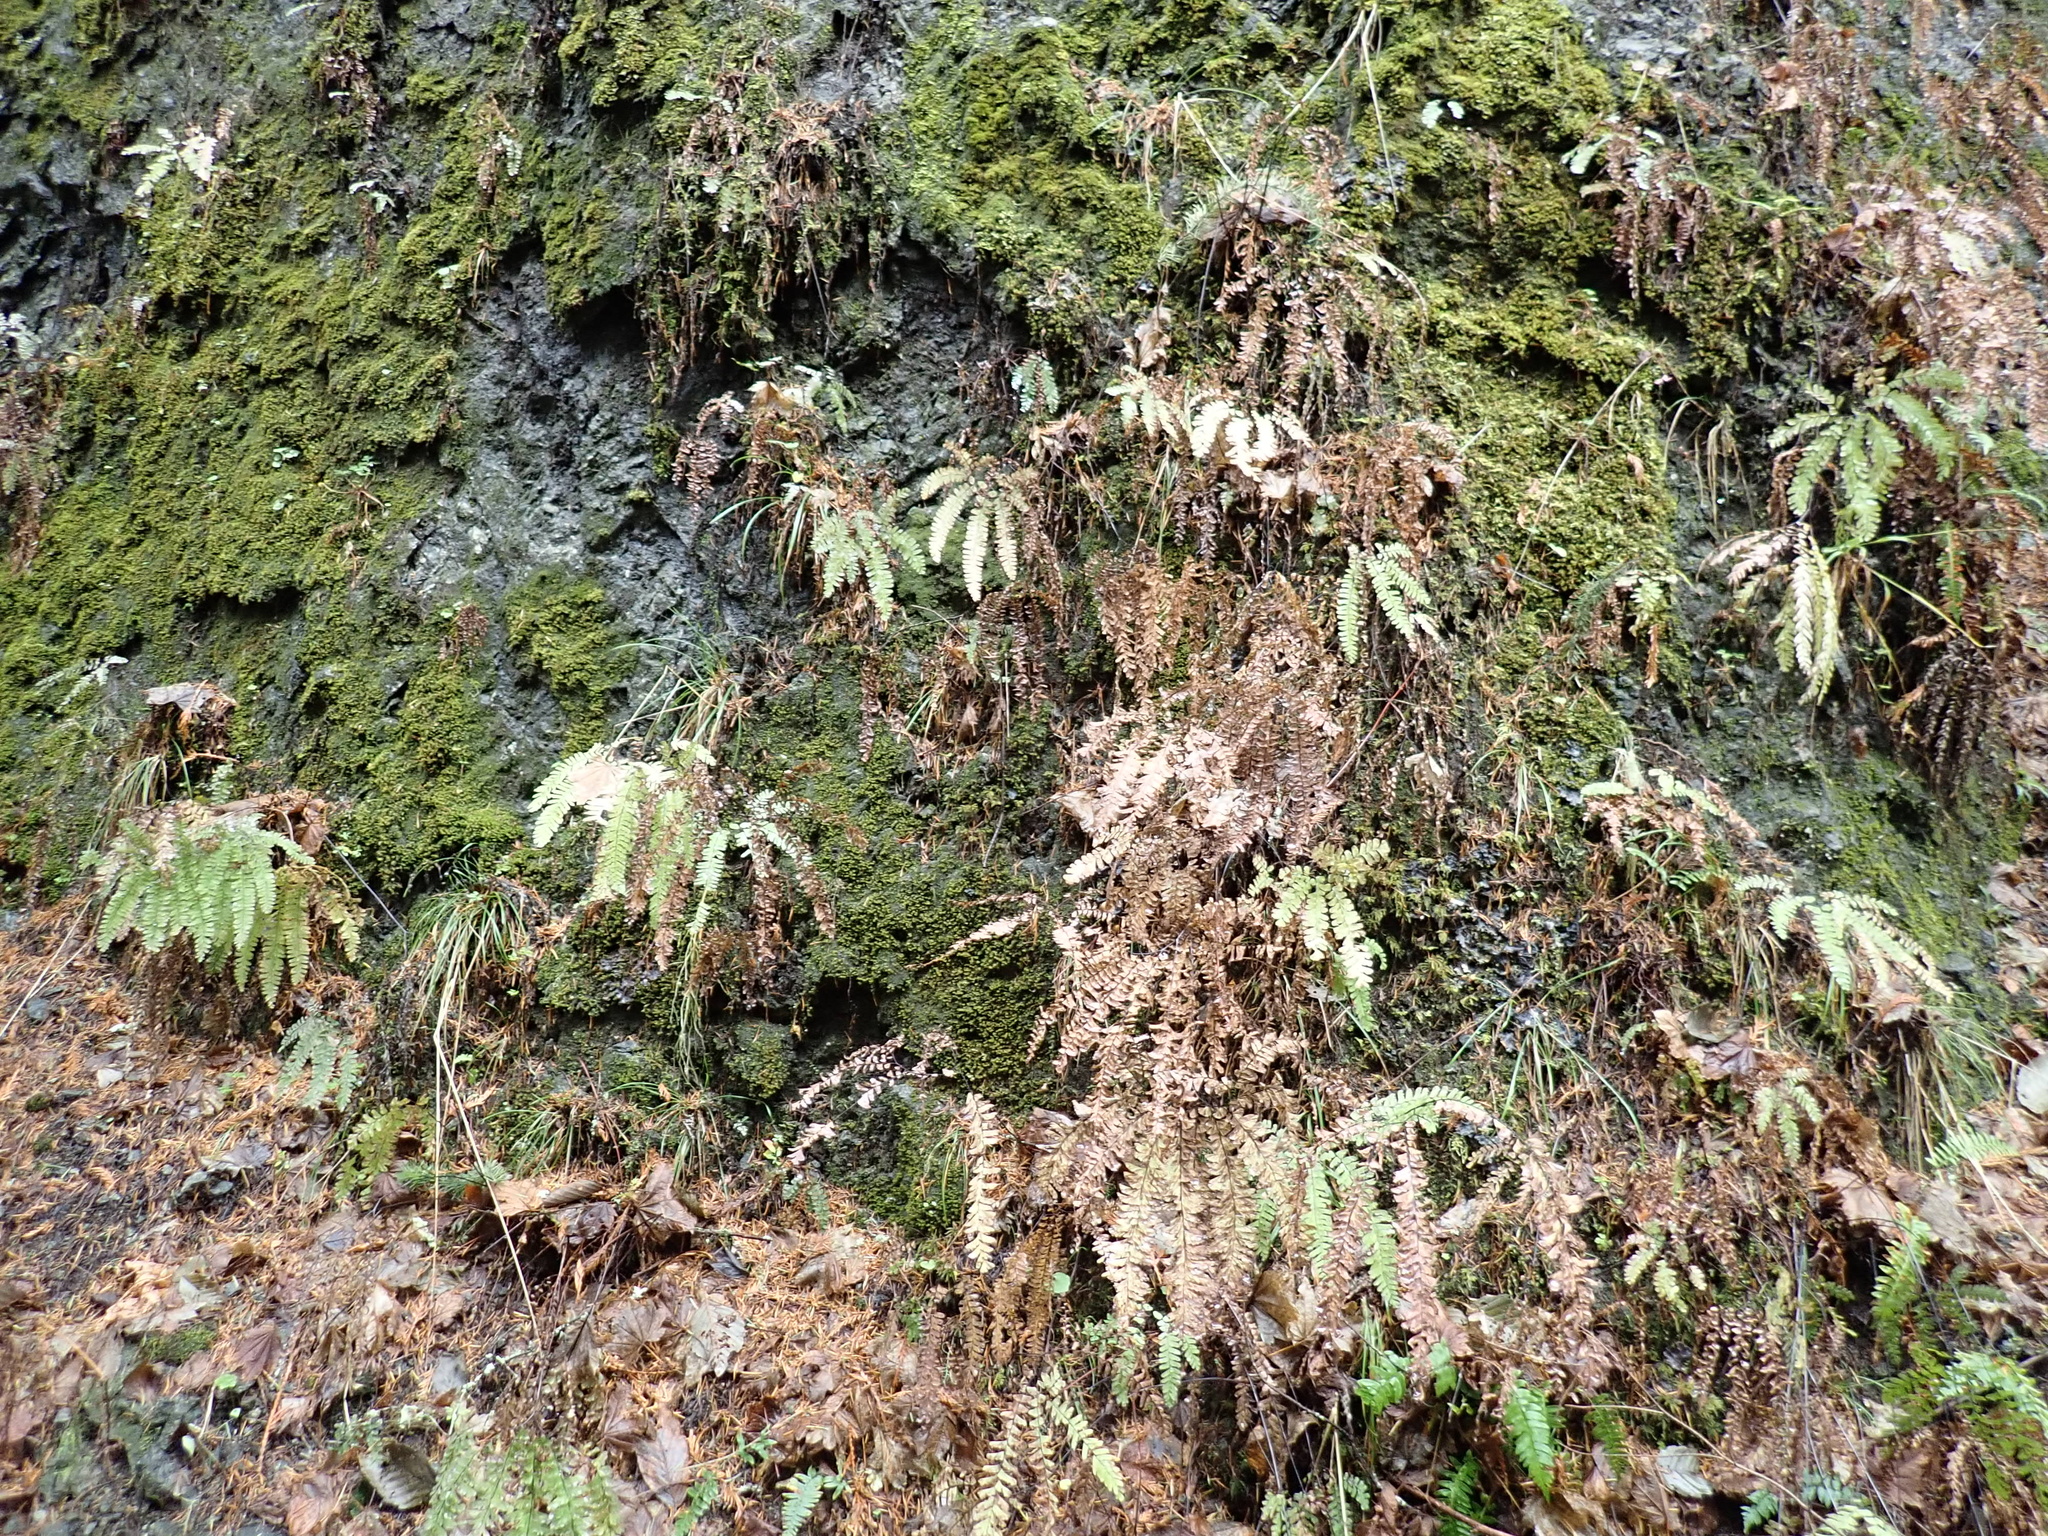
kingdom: Plantae
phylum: Tracheophyta
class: Polypodiopsida
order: Polypodiales
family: Pteridaceae
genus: Adiantum
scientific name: Adiantum aleuticum
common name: Aleutian maidenhair fern
